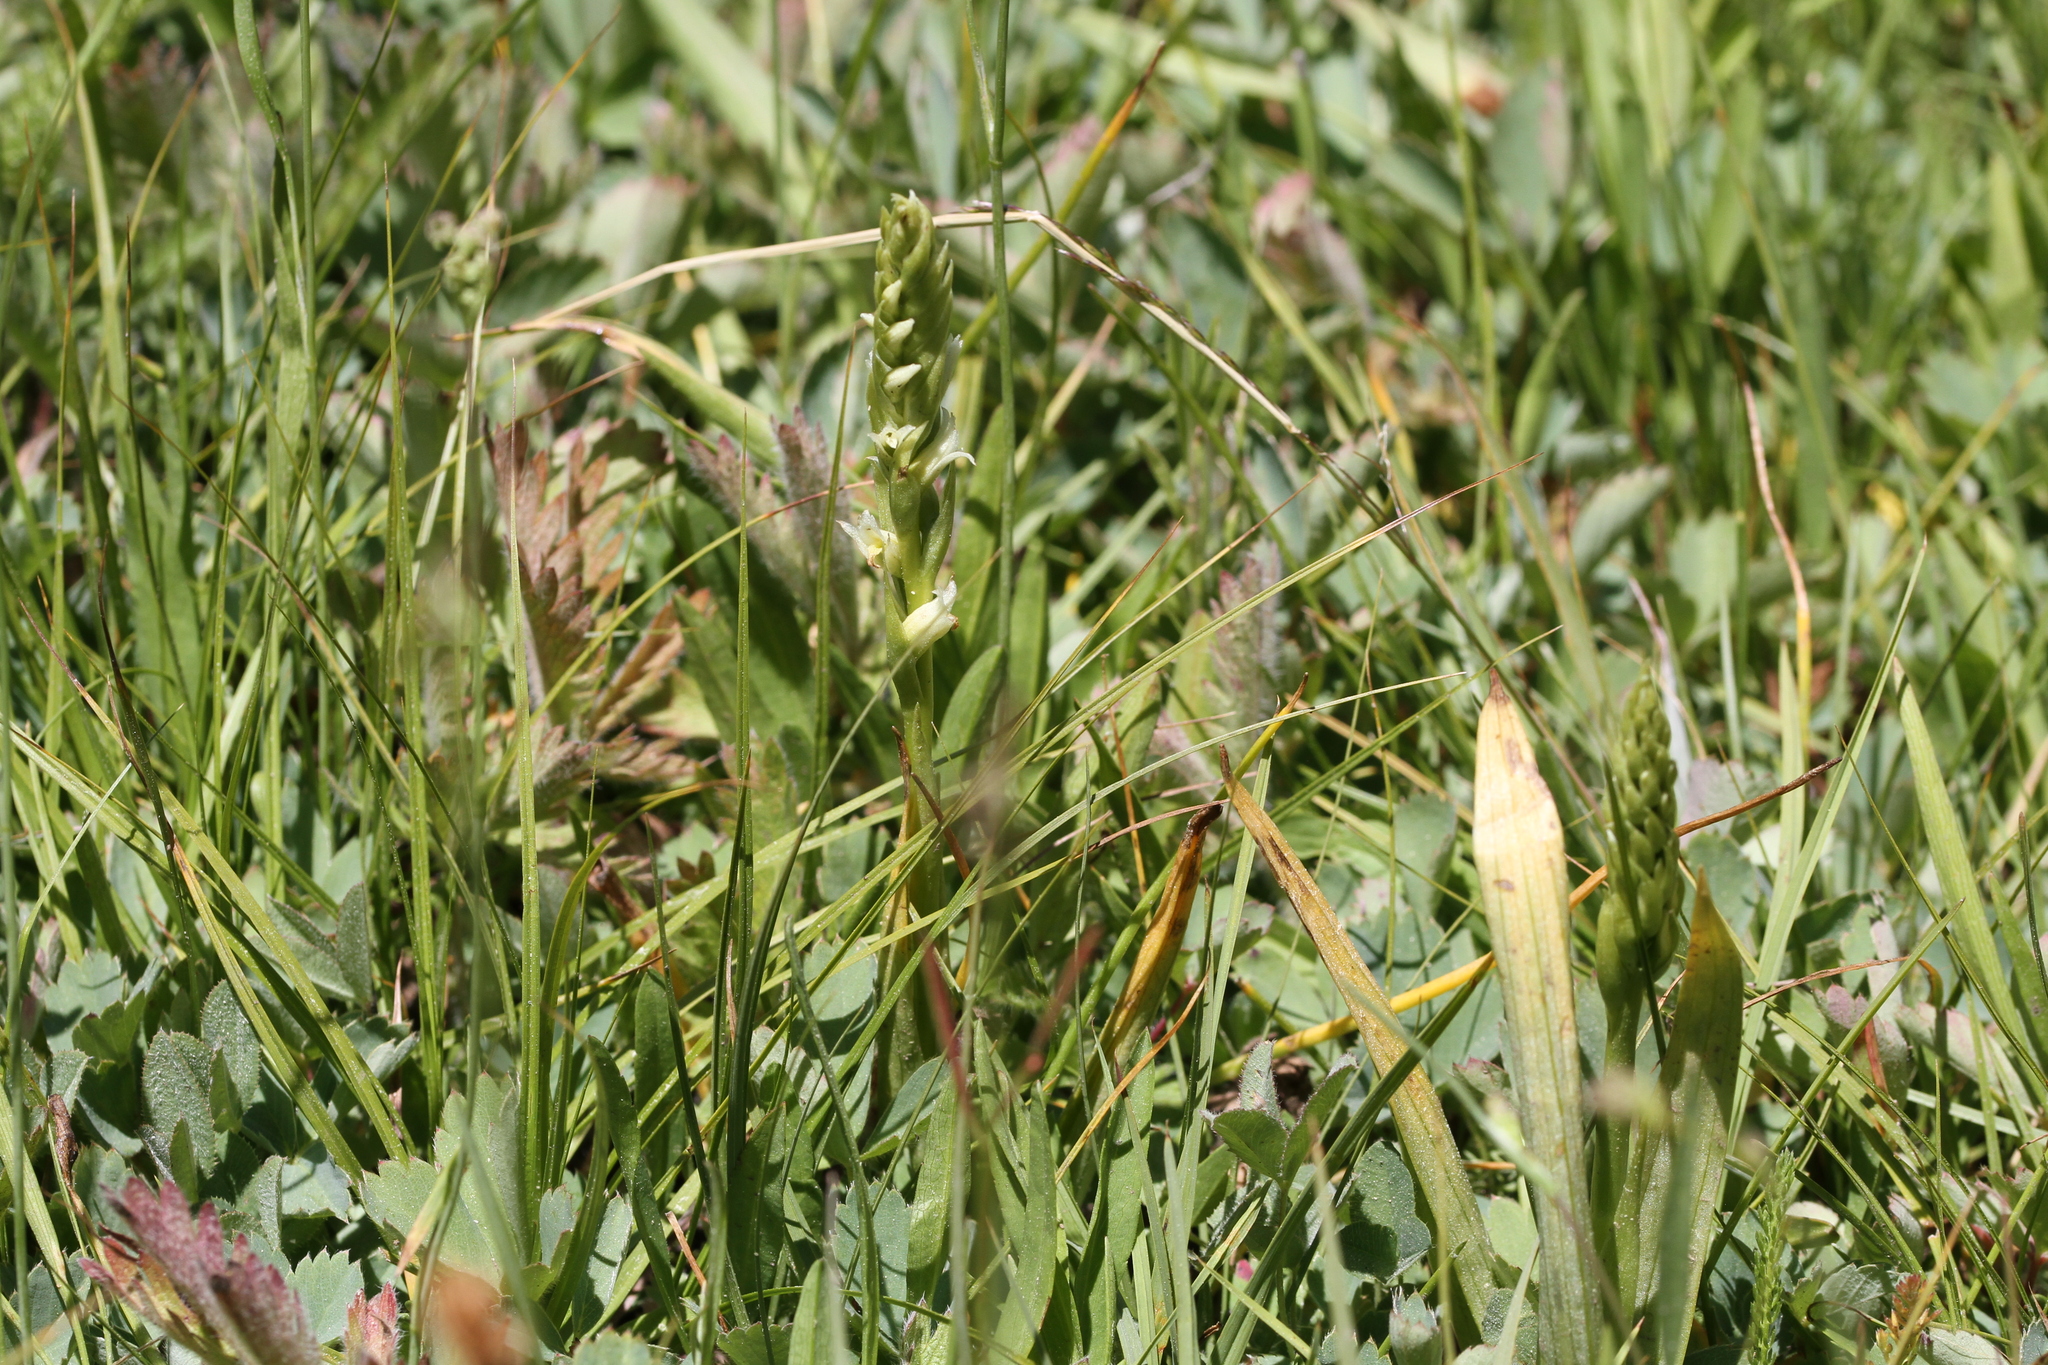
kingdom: Plantae
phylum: Tracheophyta
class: Liliopsida
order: Asparagales
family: Orchidaceae
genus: Spiranthes
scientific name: Spiranthes stellata
